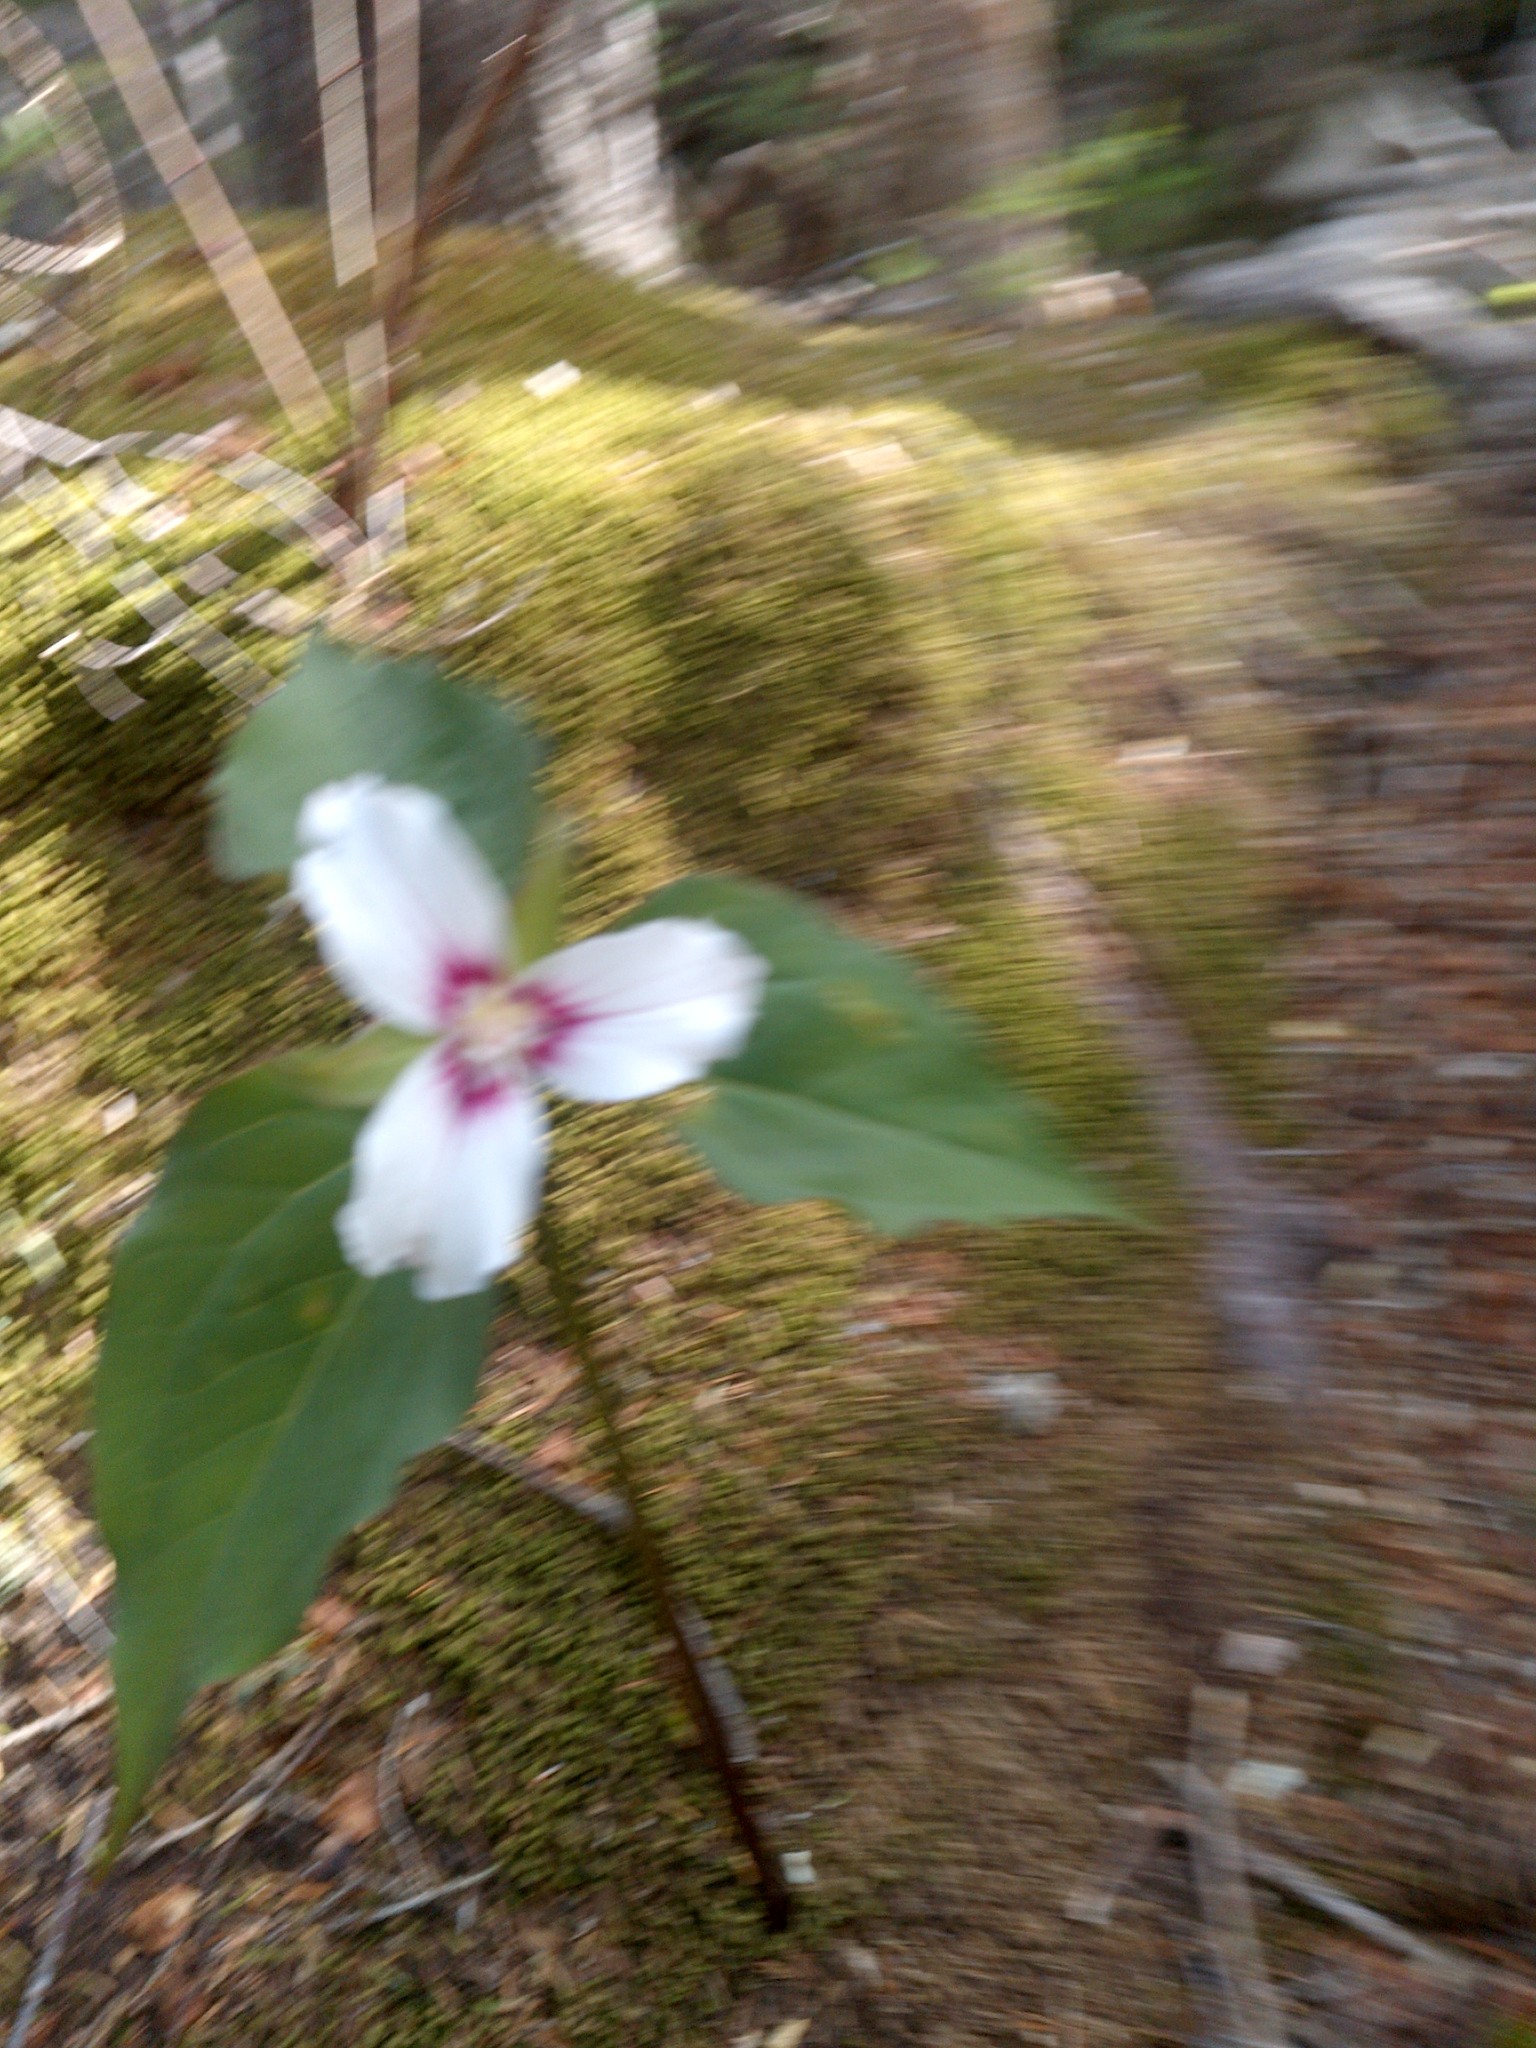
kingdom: Plantae
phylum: Tracheophyta
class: Liliopsida
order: Liliales
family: Melanthiaceae
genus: Trillium
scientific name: Trillium undulatum
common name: Paint trillium
